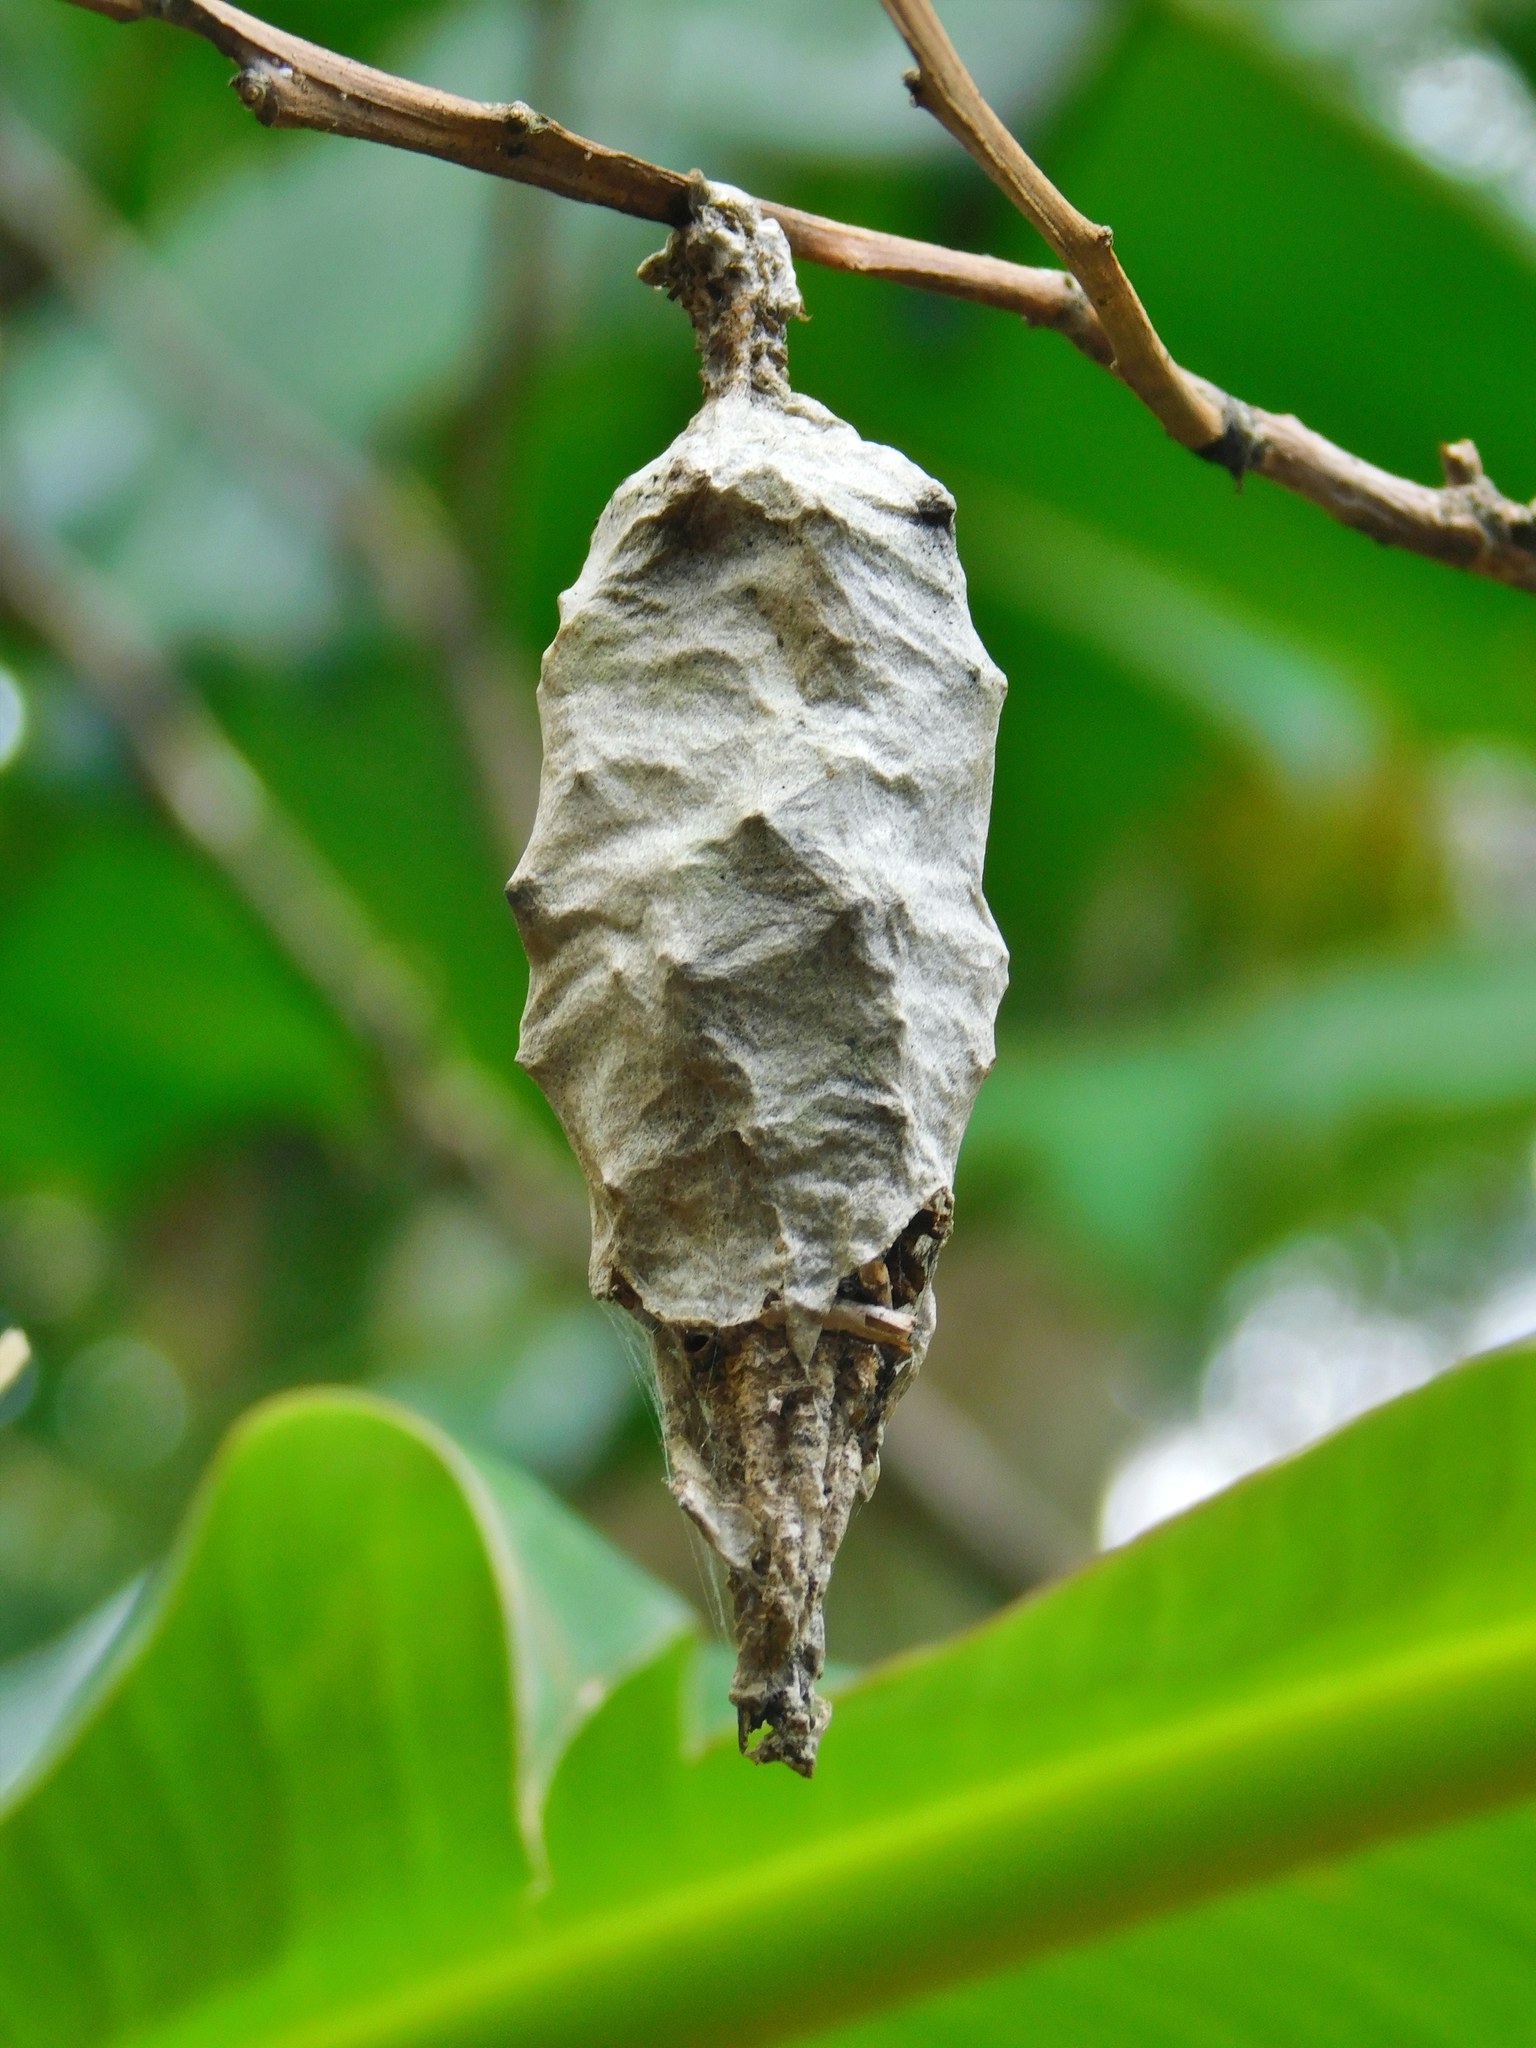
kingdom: Animalia
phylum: Arthropoda
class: Insecta
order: Lepidoptera
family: Psychidae
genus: Oiketicus
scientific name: Oiketicus kirbyi
